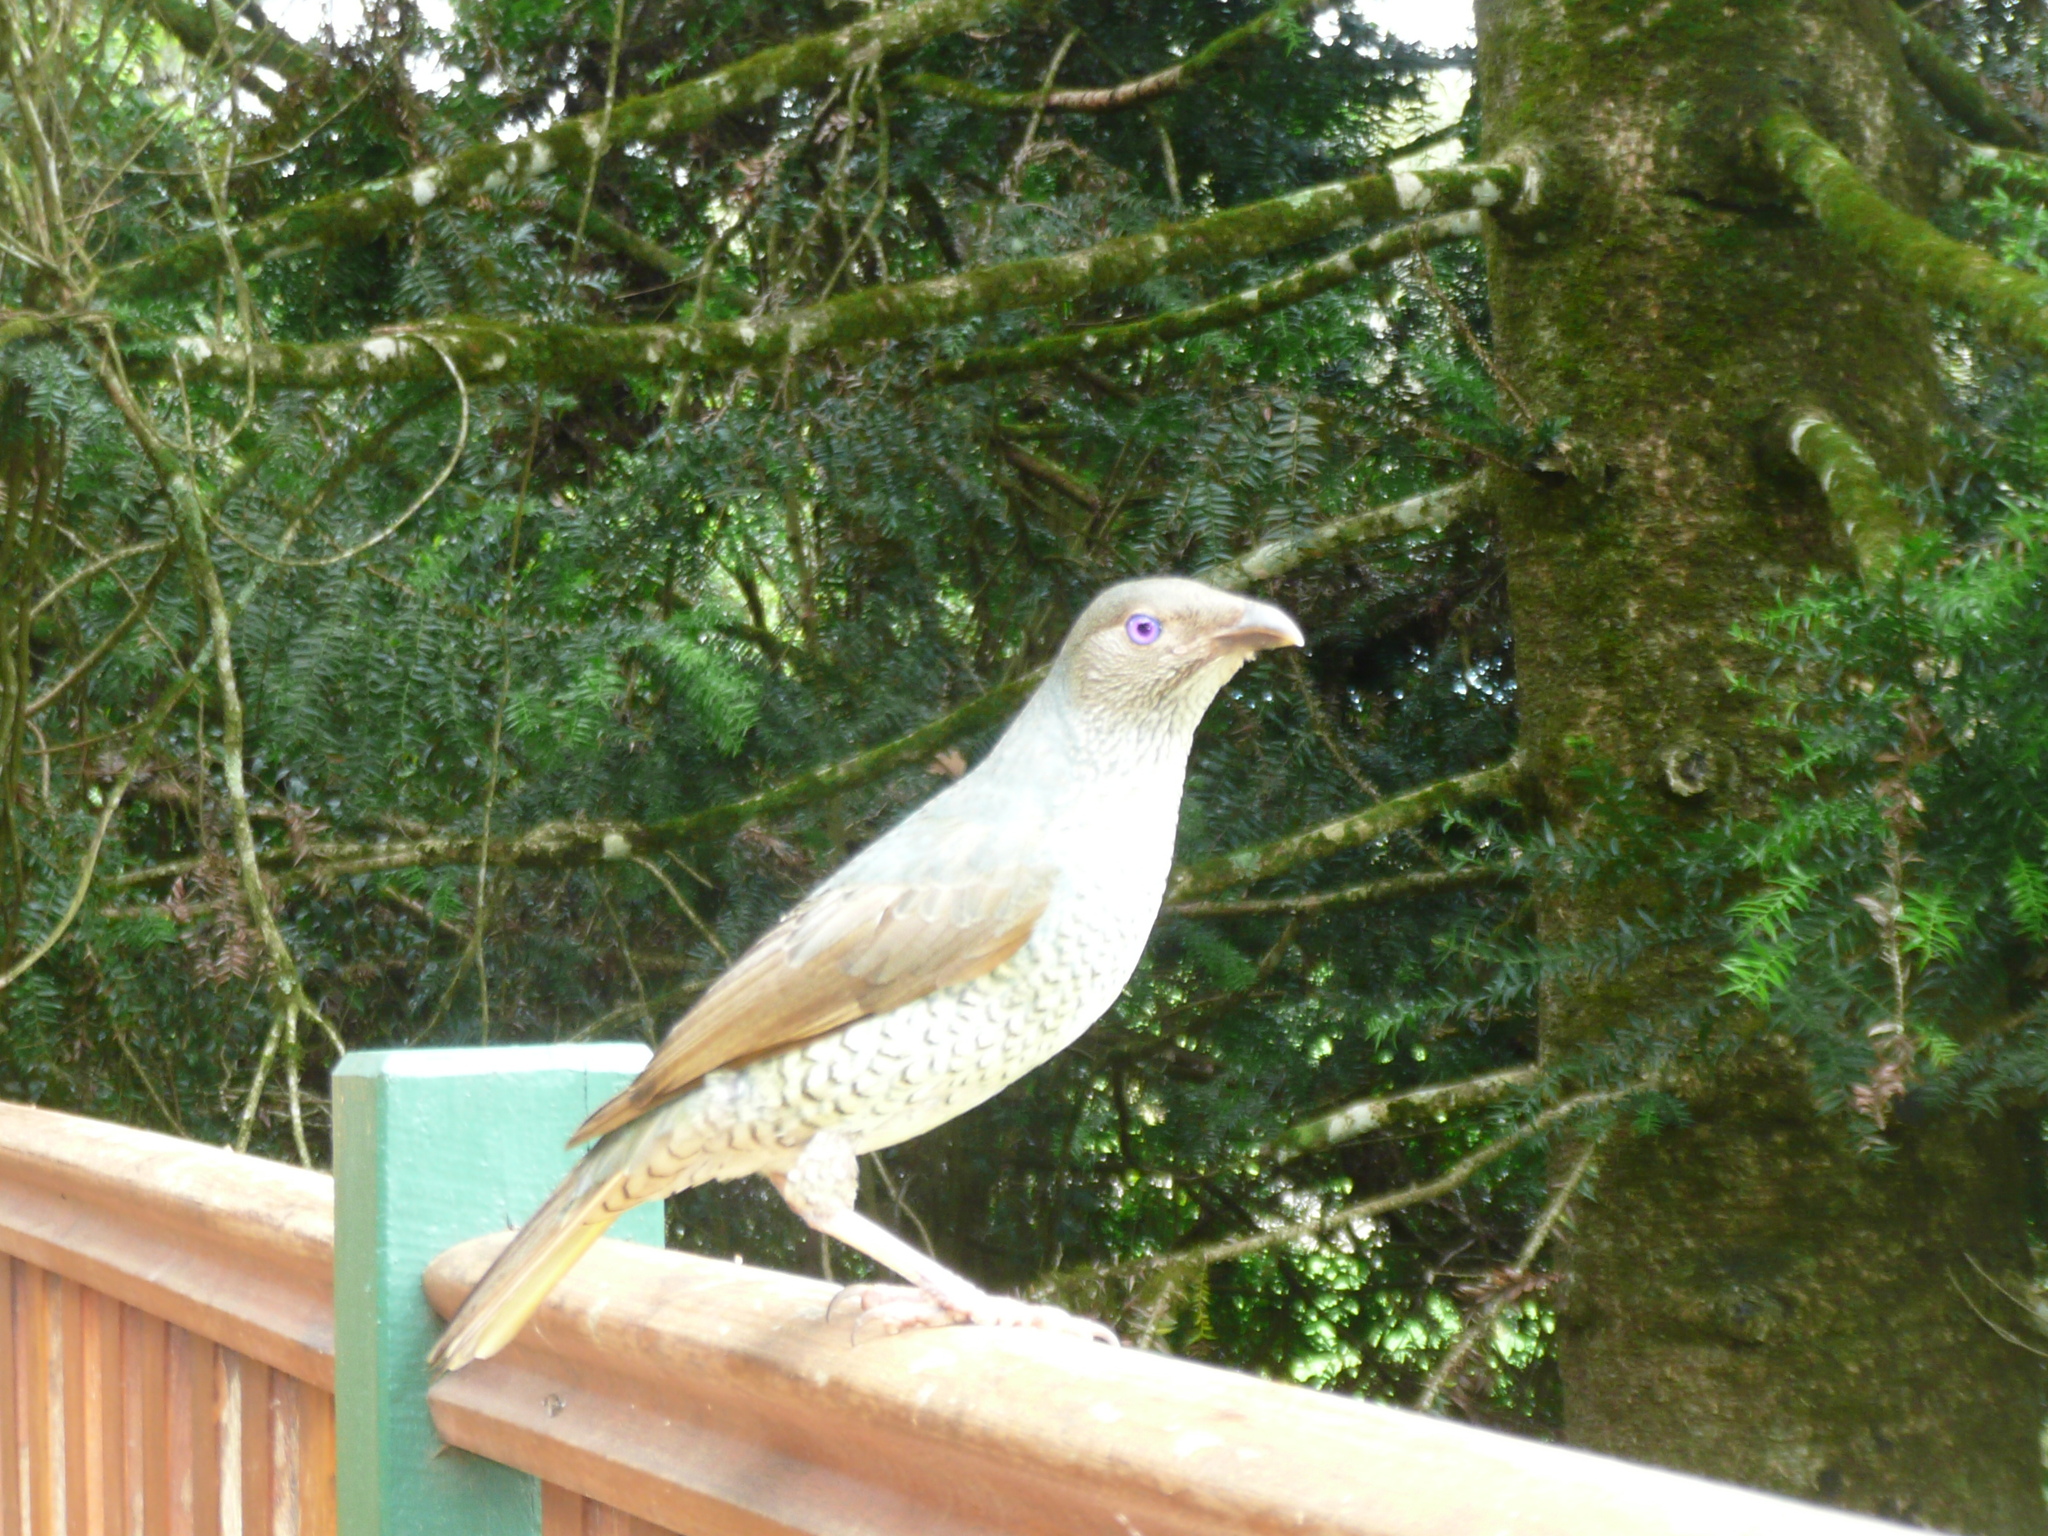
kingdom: Animalia
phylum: Chordata
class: Aves
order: Passeriformes
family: Ptilonorhynchidae
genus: Ptilonorhynchus
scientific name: Ptilonorhynchus violaceus
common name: Satin bowerbird
